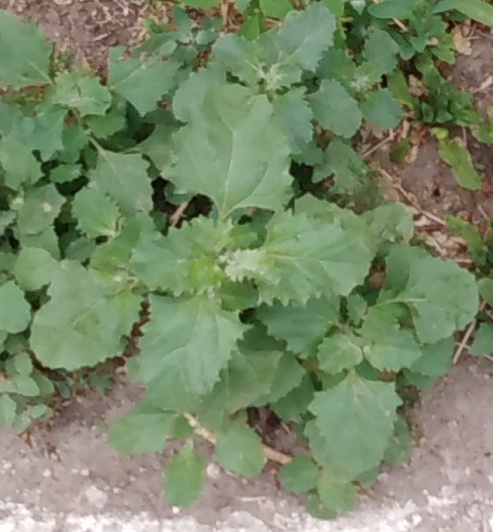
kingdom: Plantae
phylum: Tracheophyta
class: Magnoliopsida
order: Caryophyllales
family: Amaranthaceae
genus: Atriplex
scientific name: Atriplex tatarica
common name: Tatarian orache
